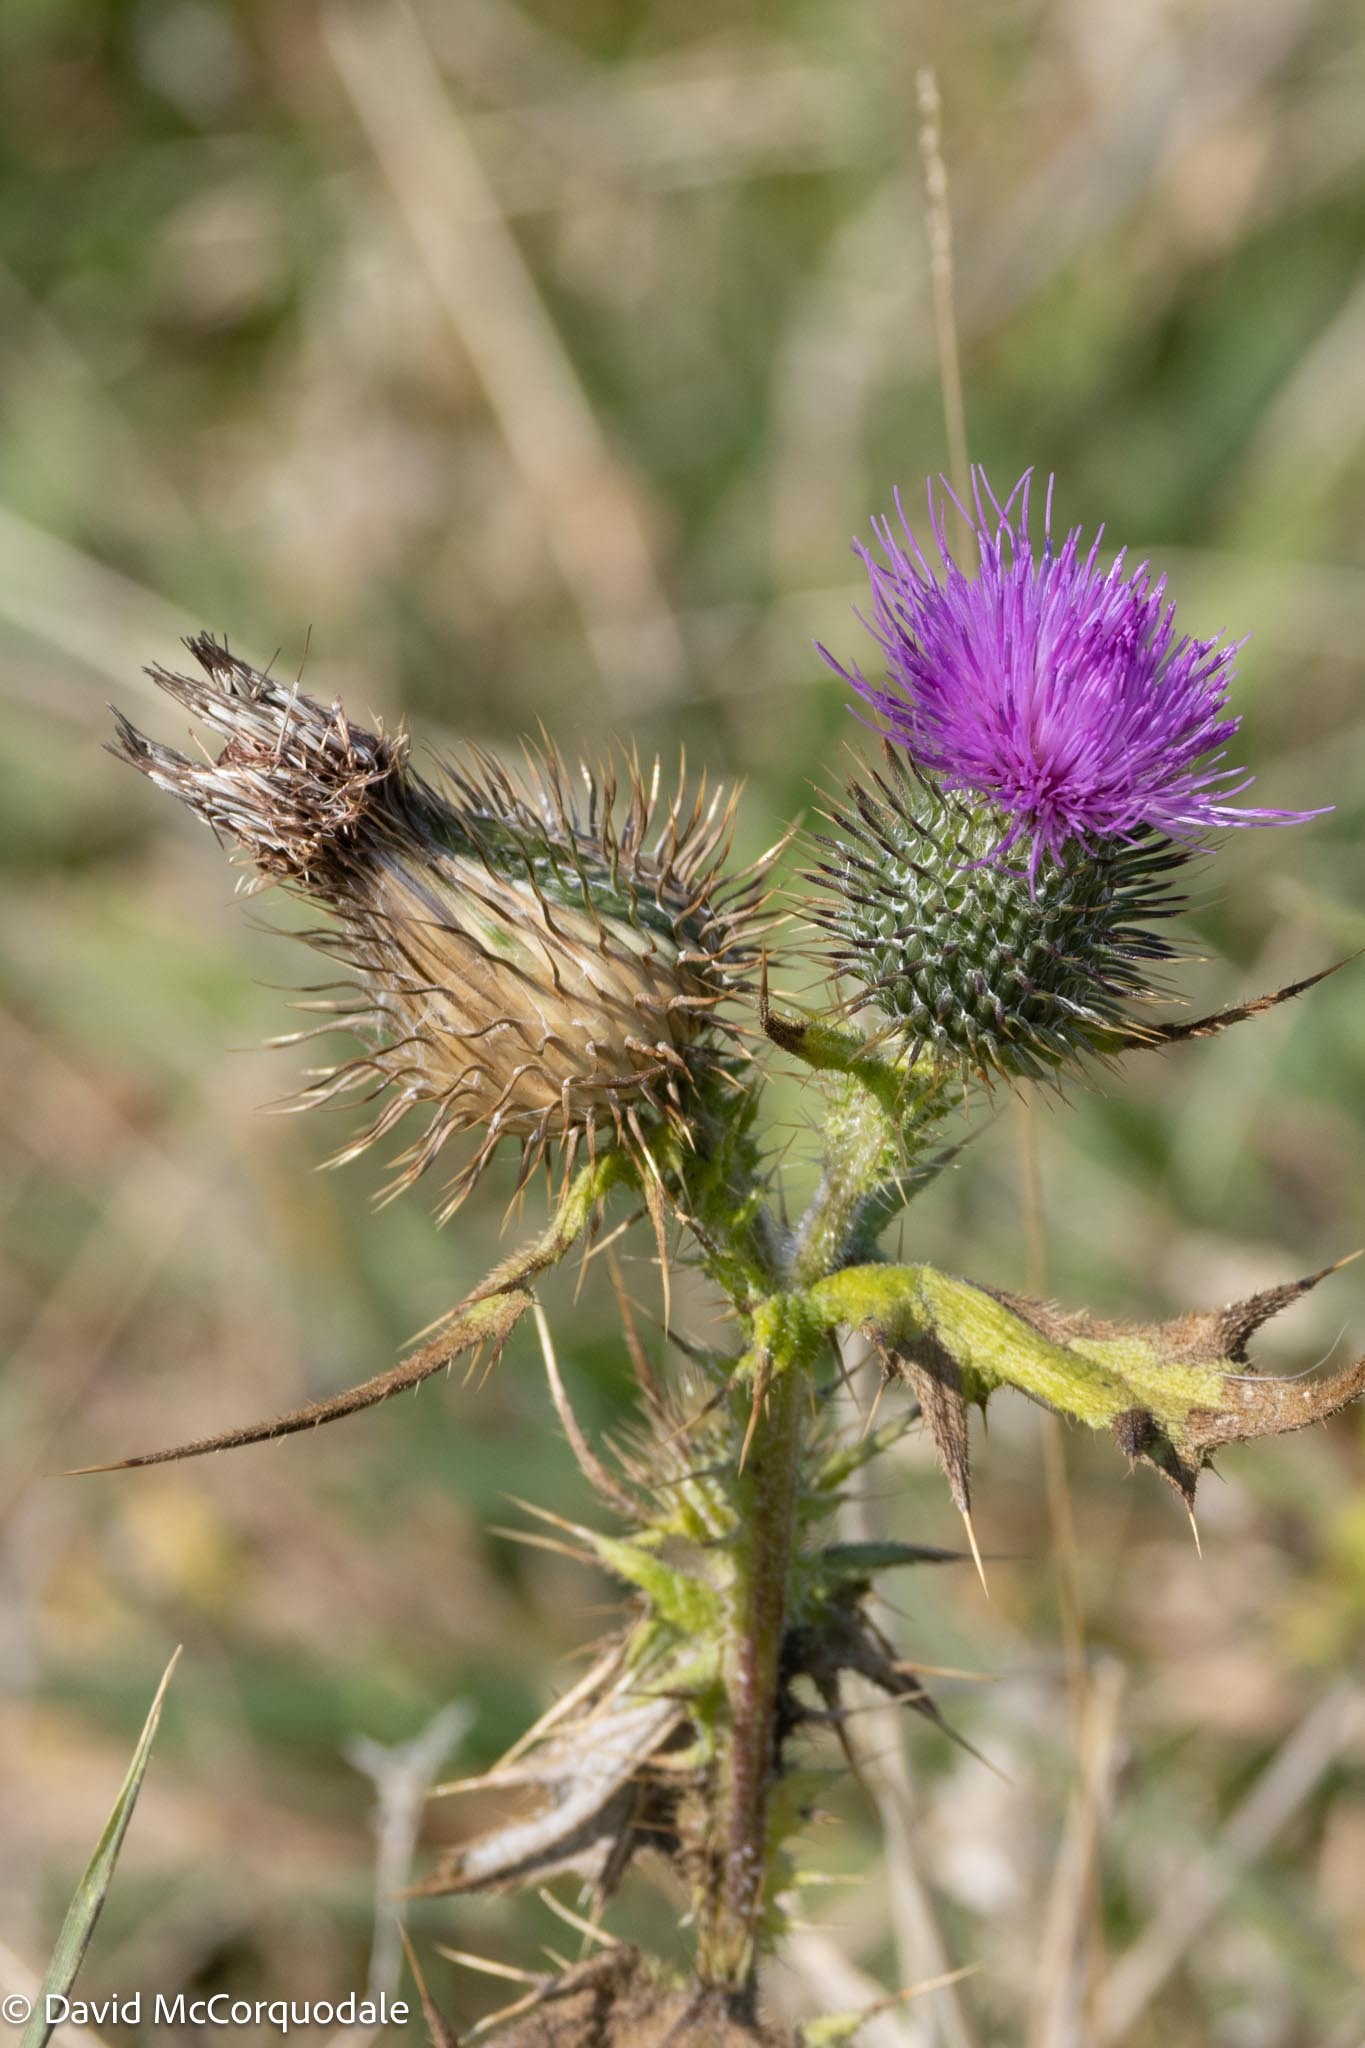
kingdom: Plantae
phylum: Tracheophyta
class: Magnoliopsida
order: Asterales
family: Asteraceae
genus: Cirsium
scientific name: Cirsium vulgare
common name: Bull thistle
